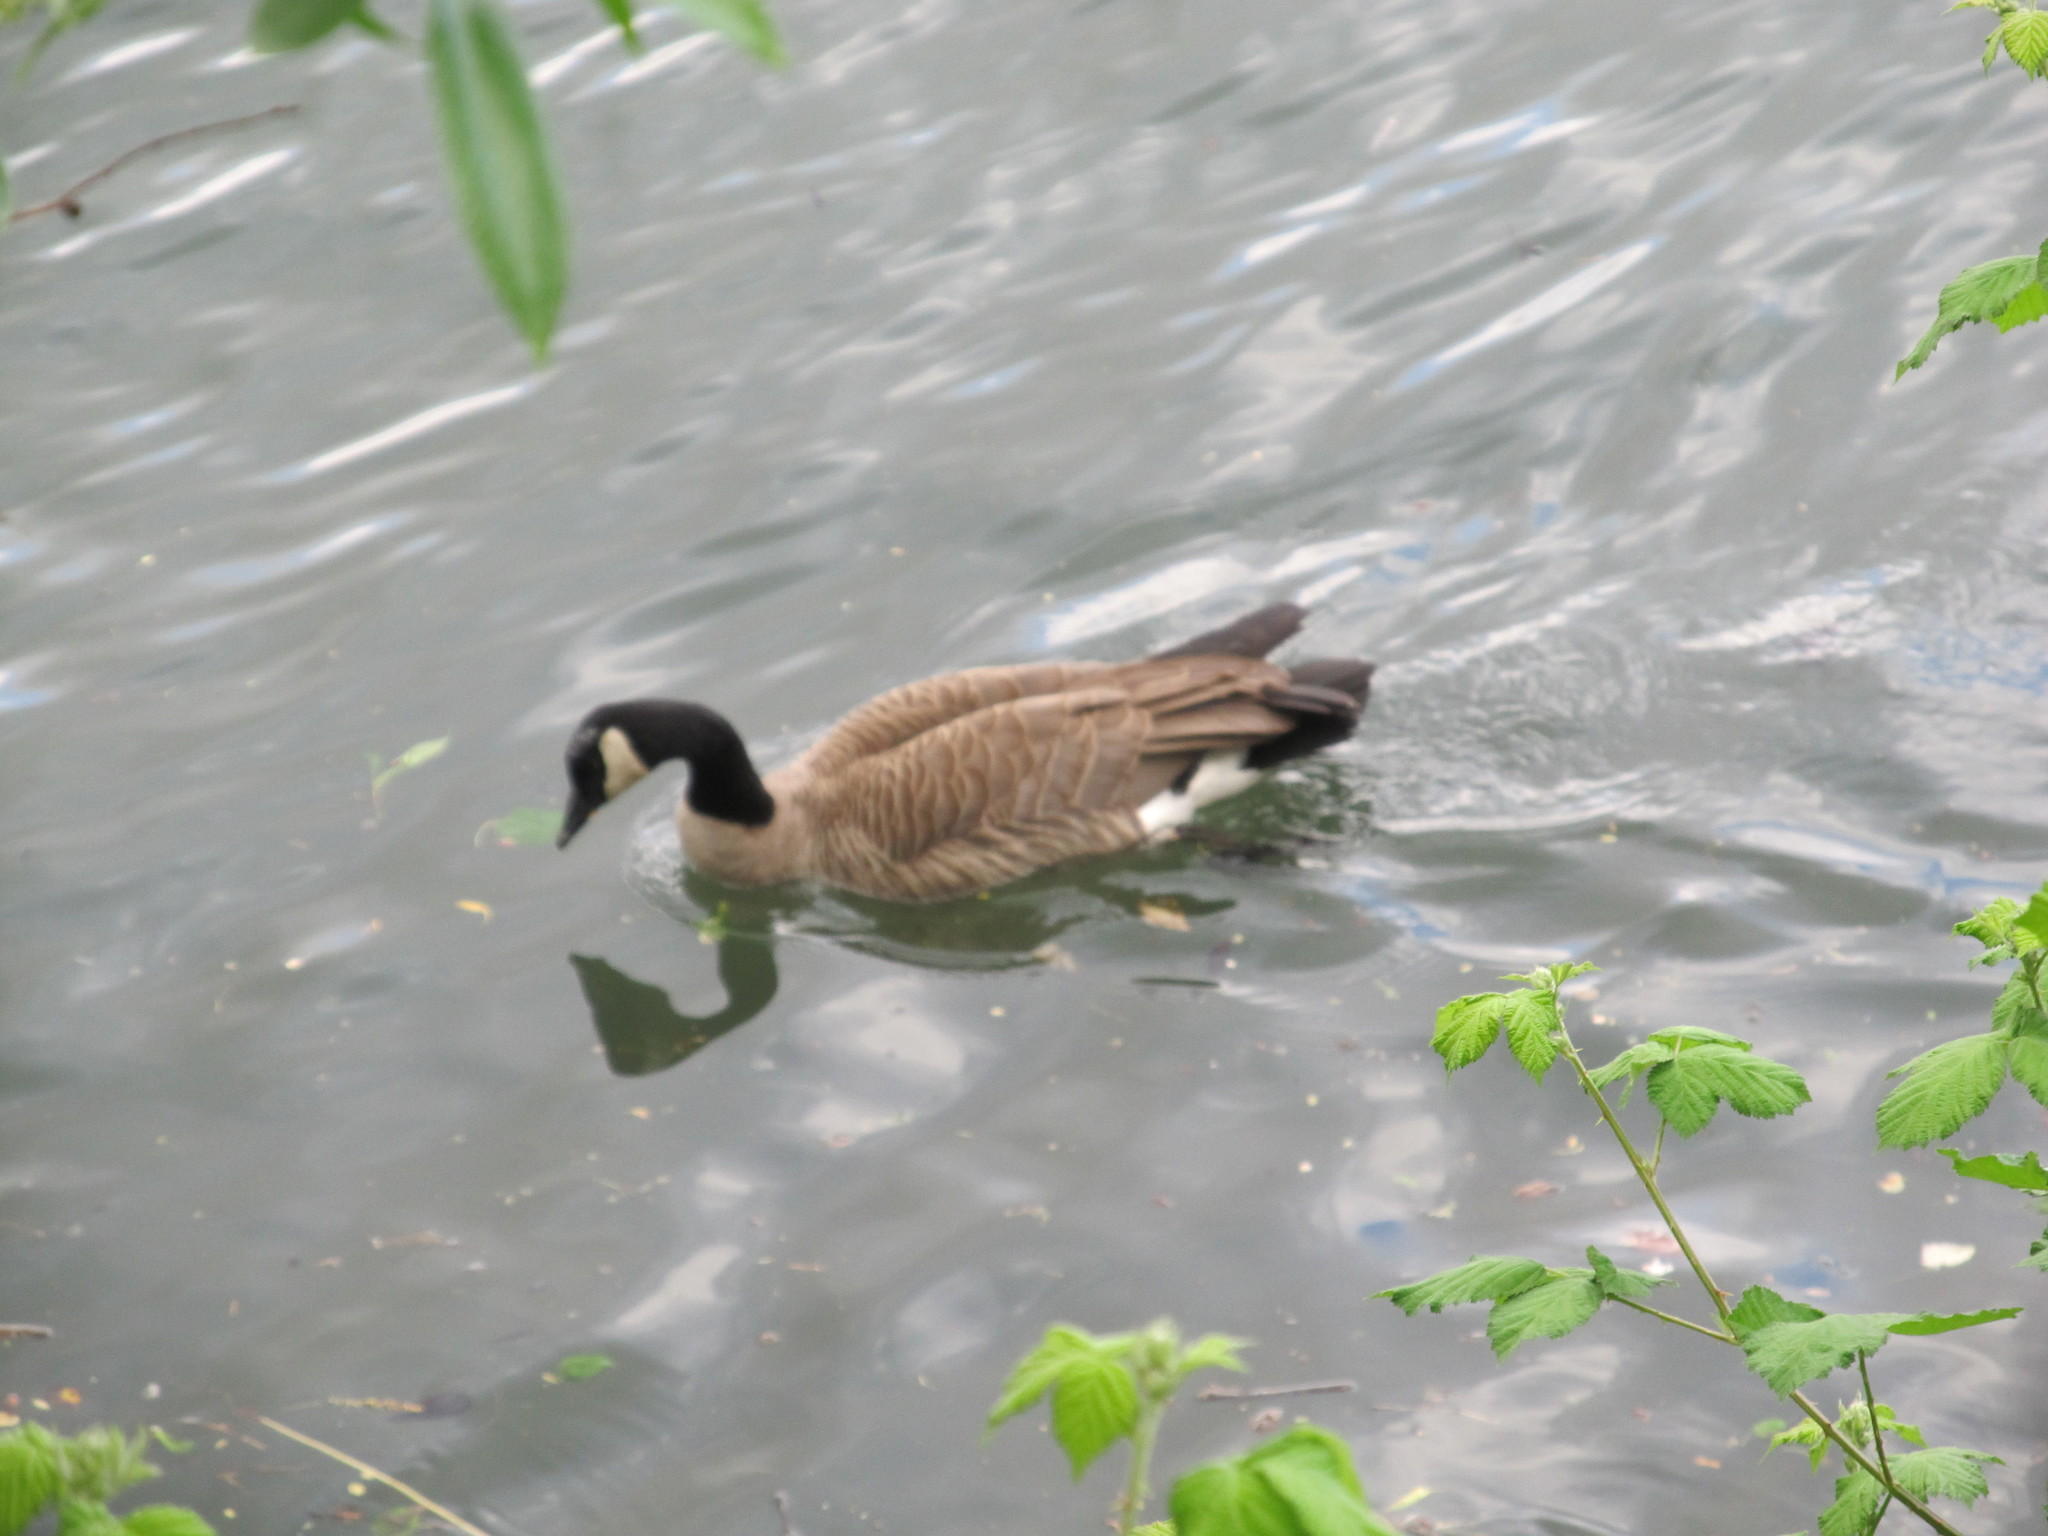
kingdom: Animalia
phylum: Chordata
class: Aves
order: Anseriformes
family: Anatidae
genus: Branta
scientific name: Branta canadensis
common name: Canada goose
